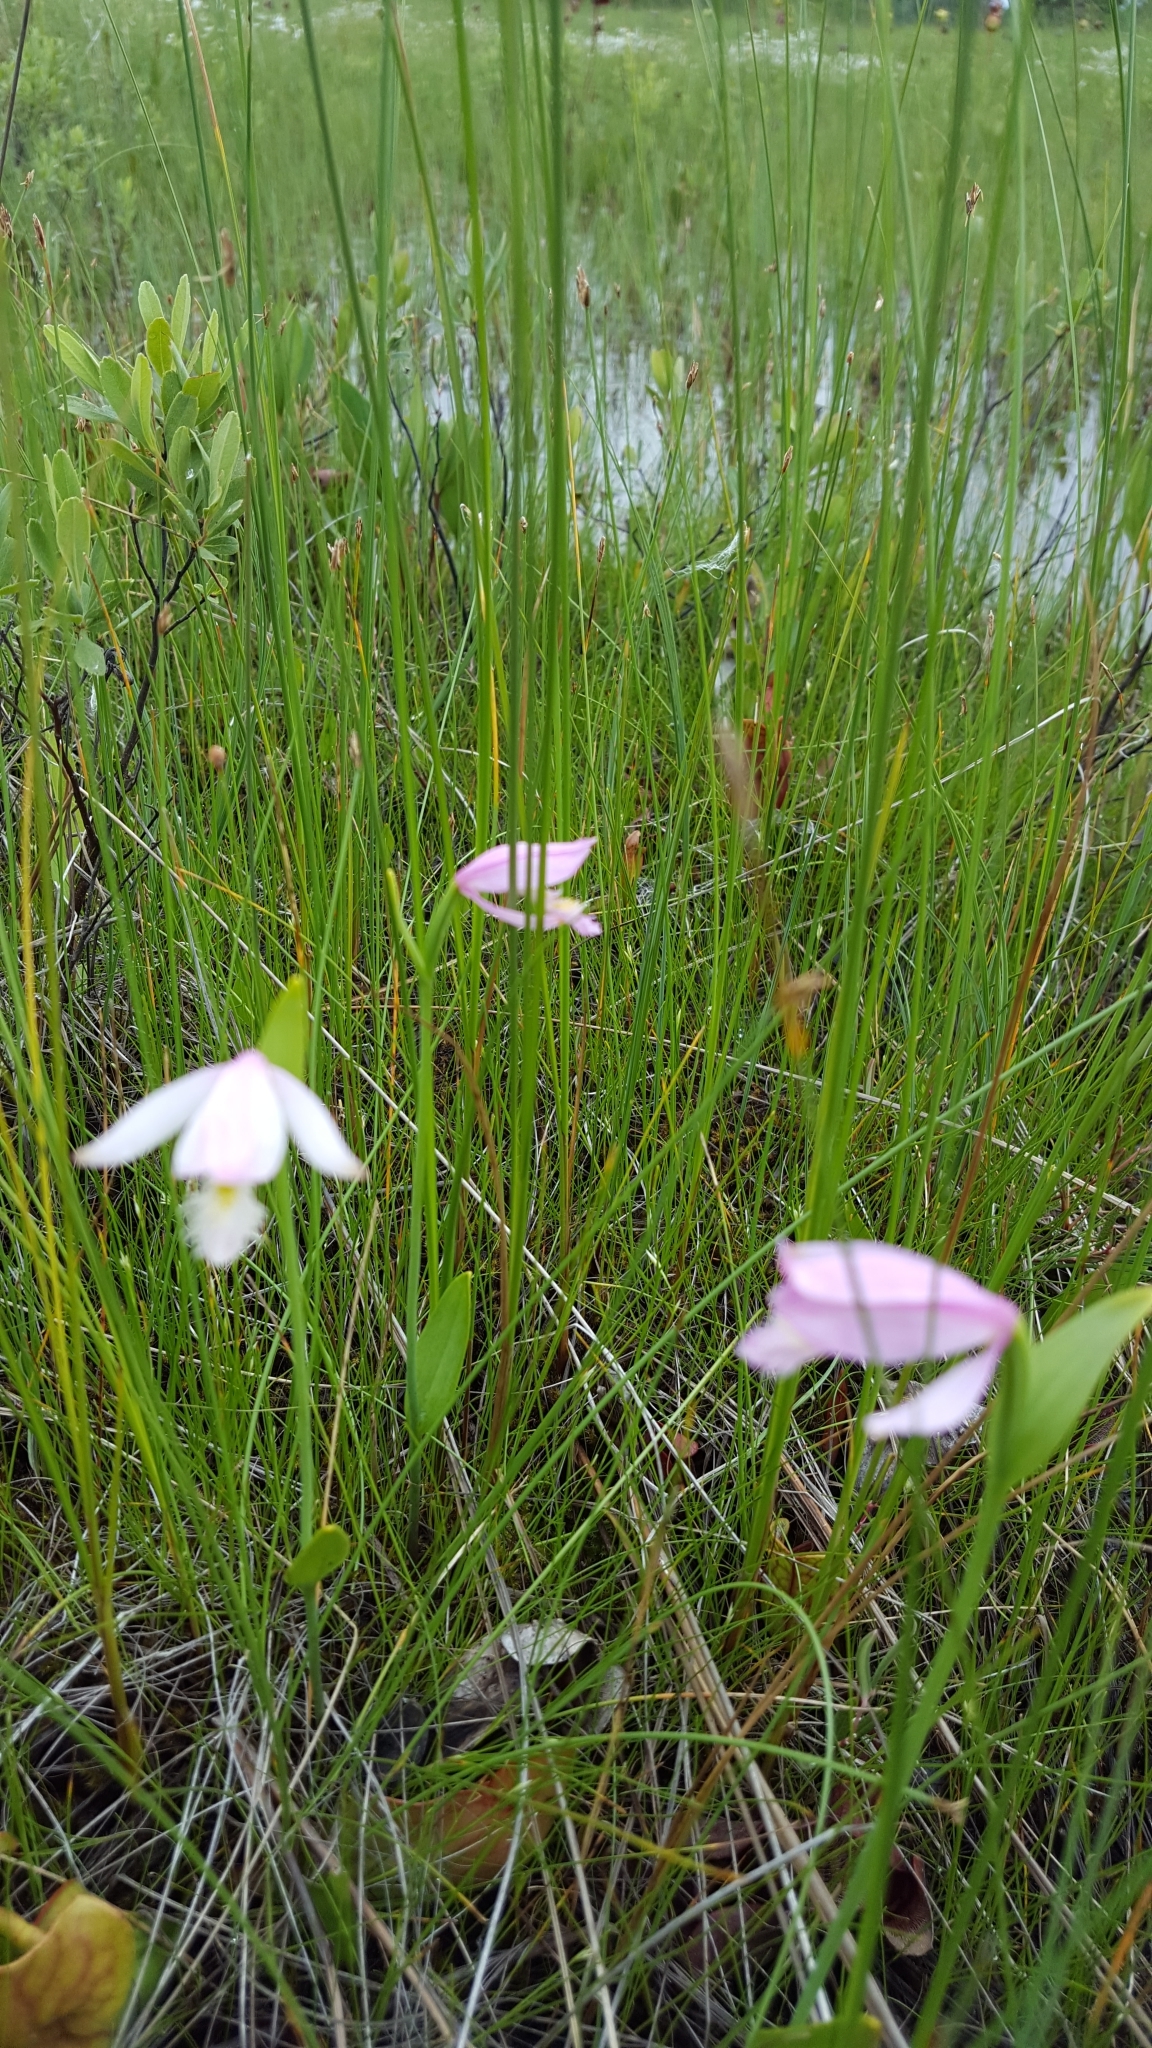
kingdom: Plantae
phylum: Tracheophyta
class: Liliopsida
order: Asparagales
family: Orchidaceae
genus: Pogonia
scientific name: Pogonia ophioglossoides
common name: Rose pogonia
